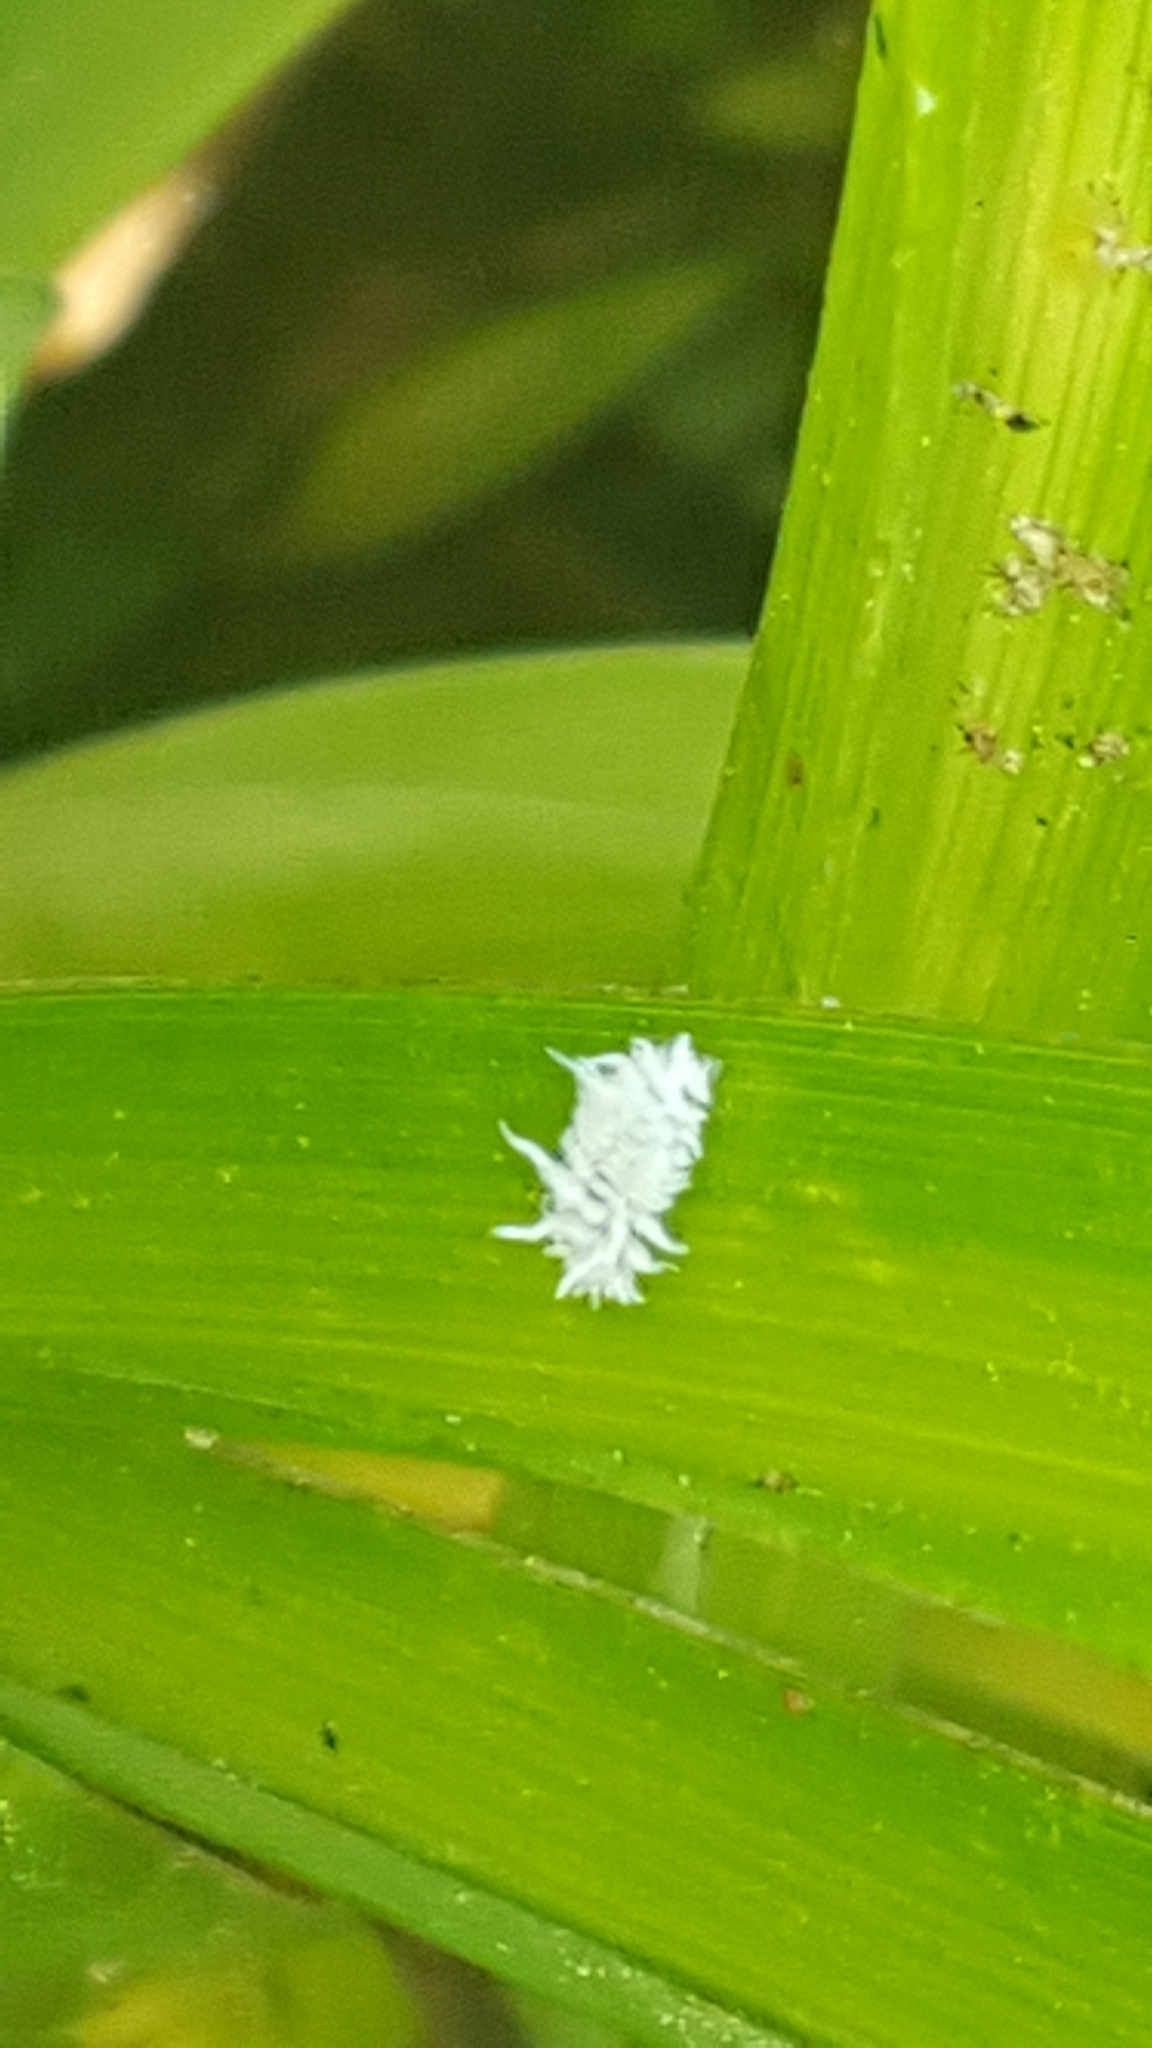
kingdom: Animalia
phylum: Arthropoda
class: Insecta
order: Coleoptera
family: Coccinellidae
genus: Cryptolaemus
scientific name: Cryptolaemus montrouzieri
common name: Mealybug destroyer
